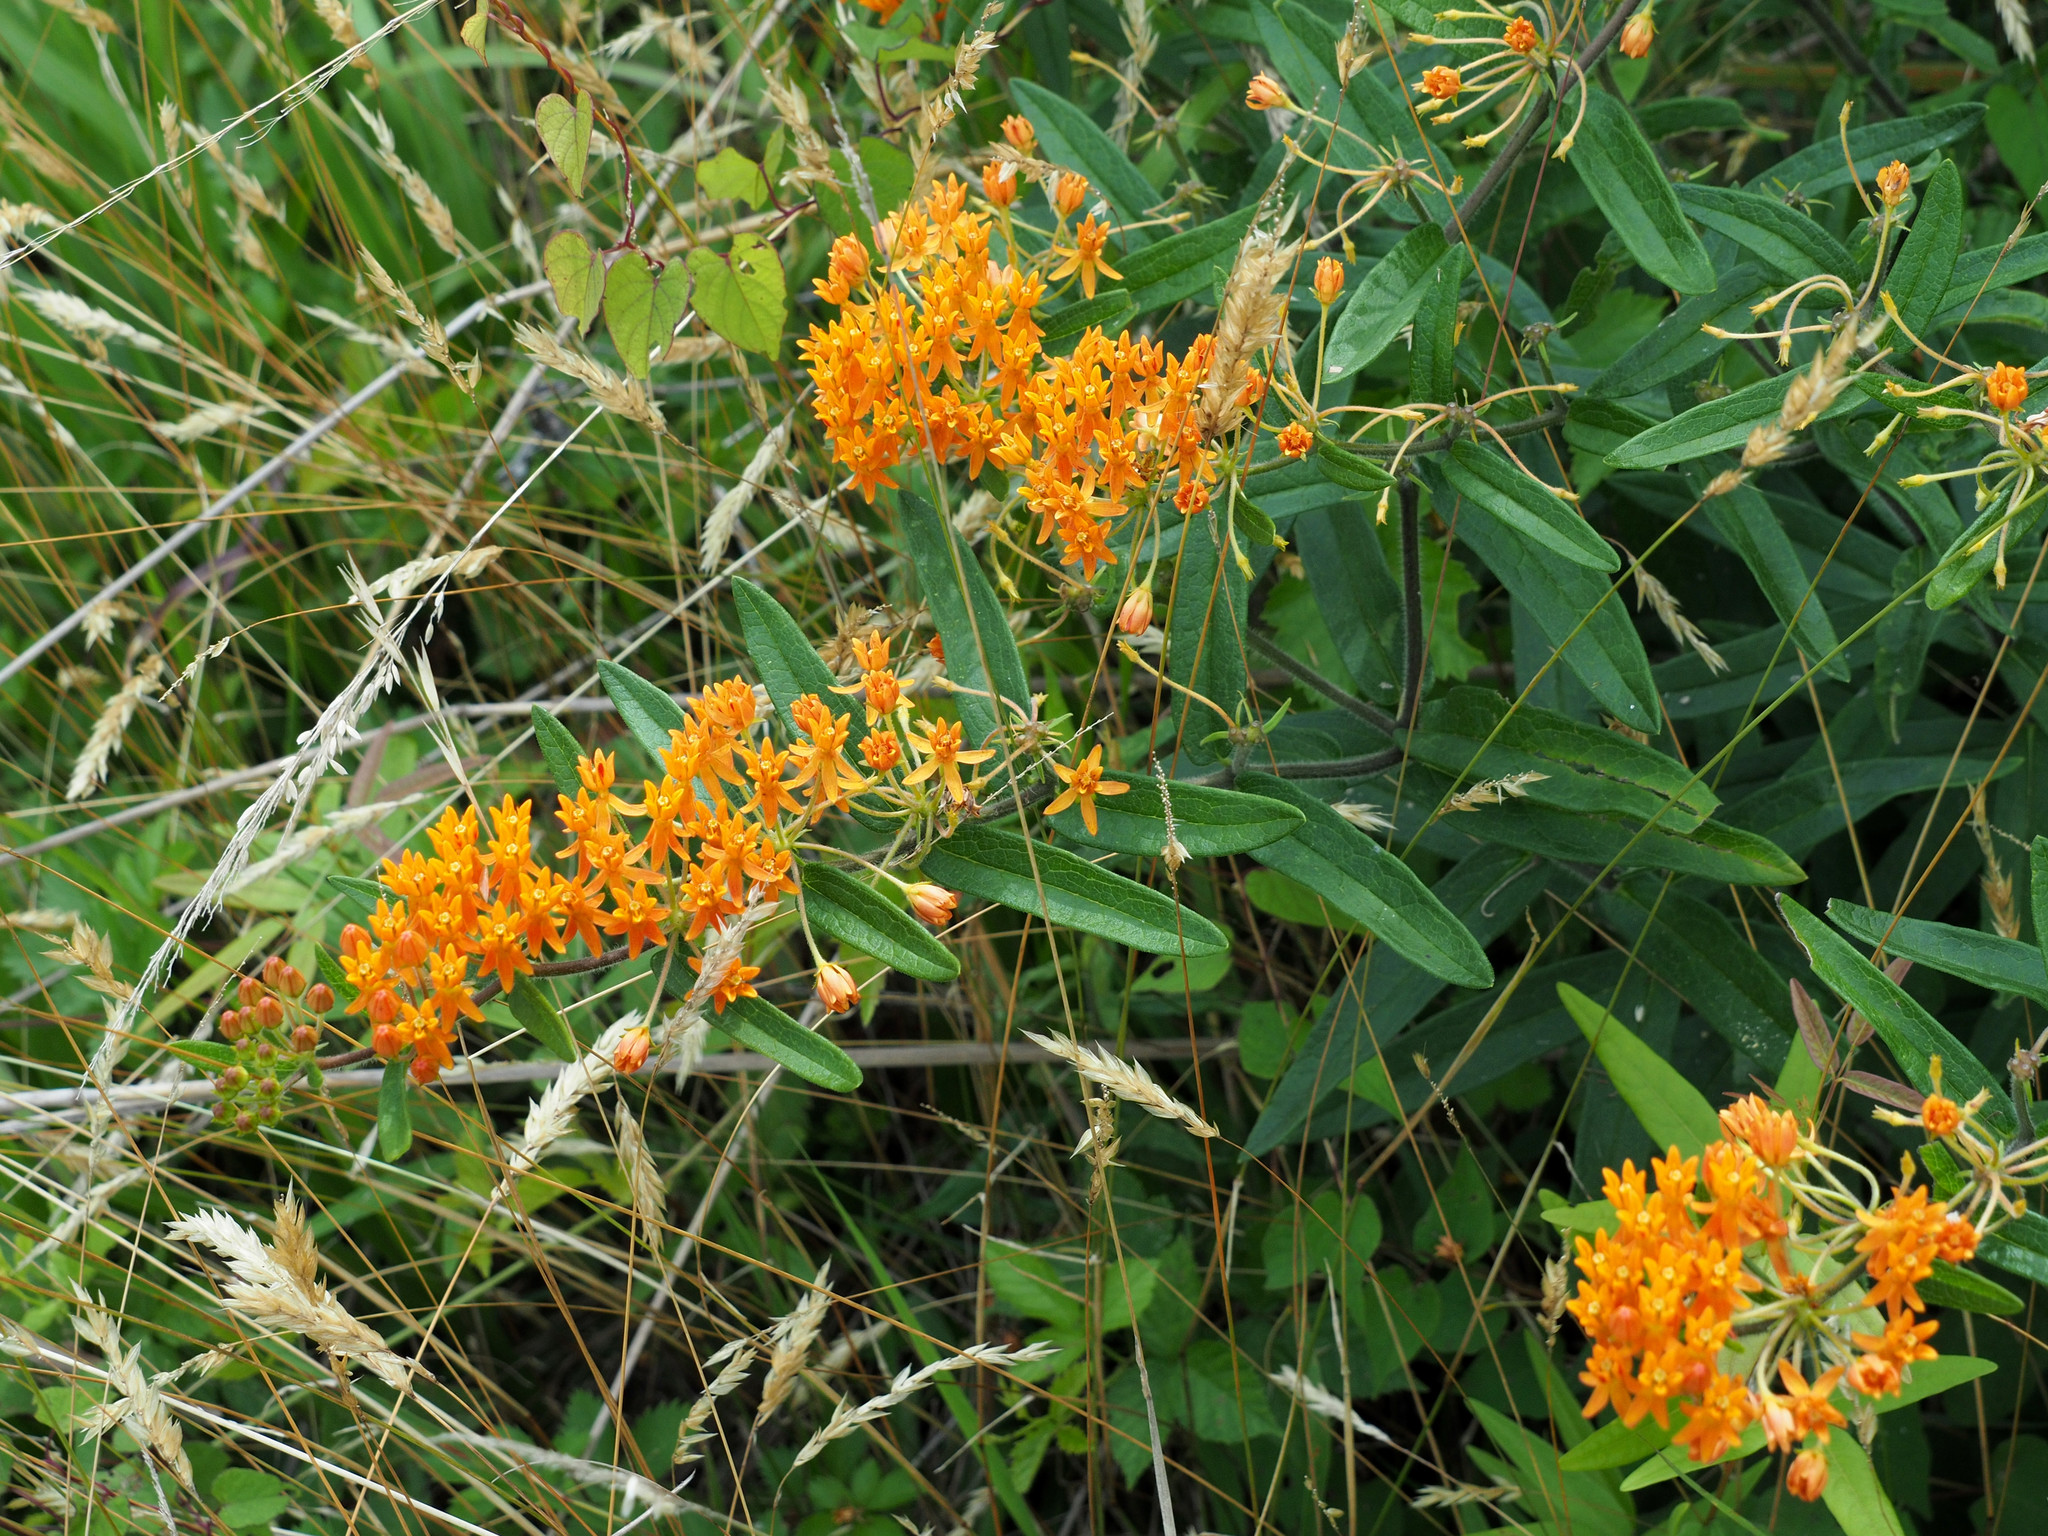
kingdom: Plantae
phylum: Tracheophyta
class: Magnoliopsida
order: Gentianales
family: Apocynaceae
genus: Asclepias
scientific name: Asclepias tuberosa
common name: Butterfly milkweed
